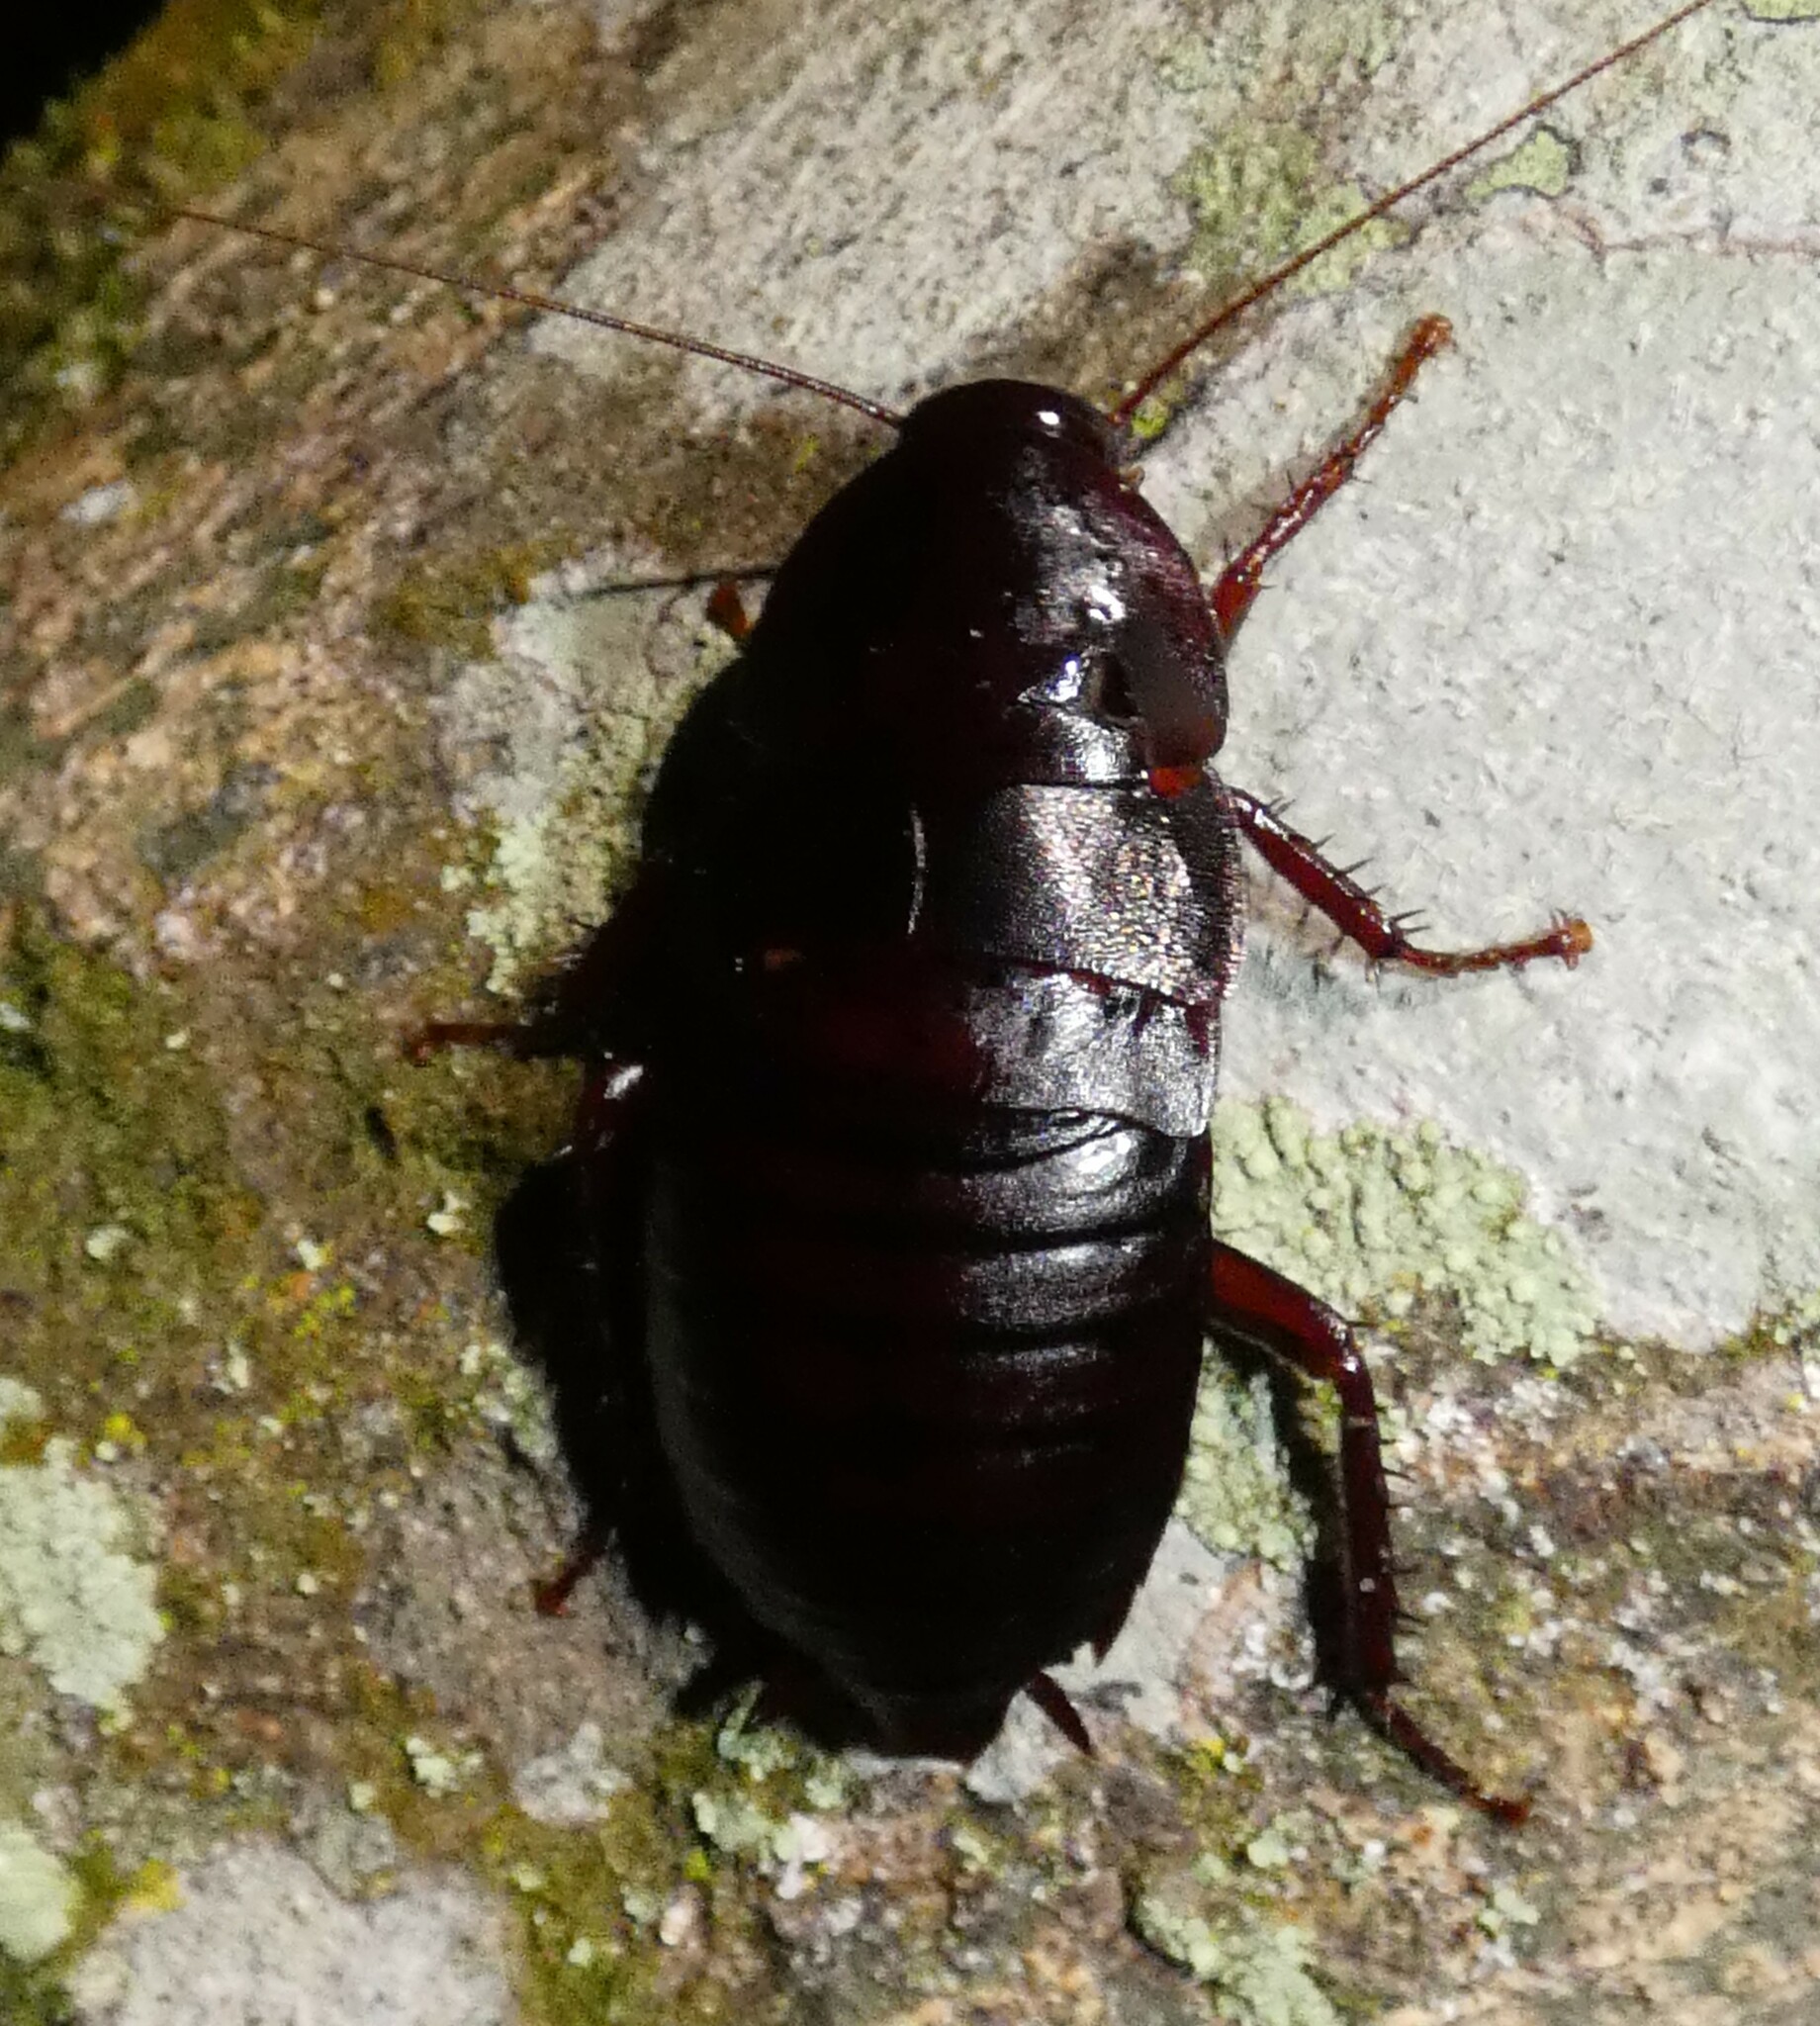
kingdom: Animalia
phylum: Arthropoda
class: Insecta
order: Blattodea
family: Blattidae
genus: Eurycotis
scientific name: Eurycotis floridana
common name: Florida cockroach
